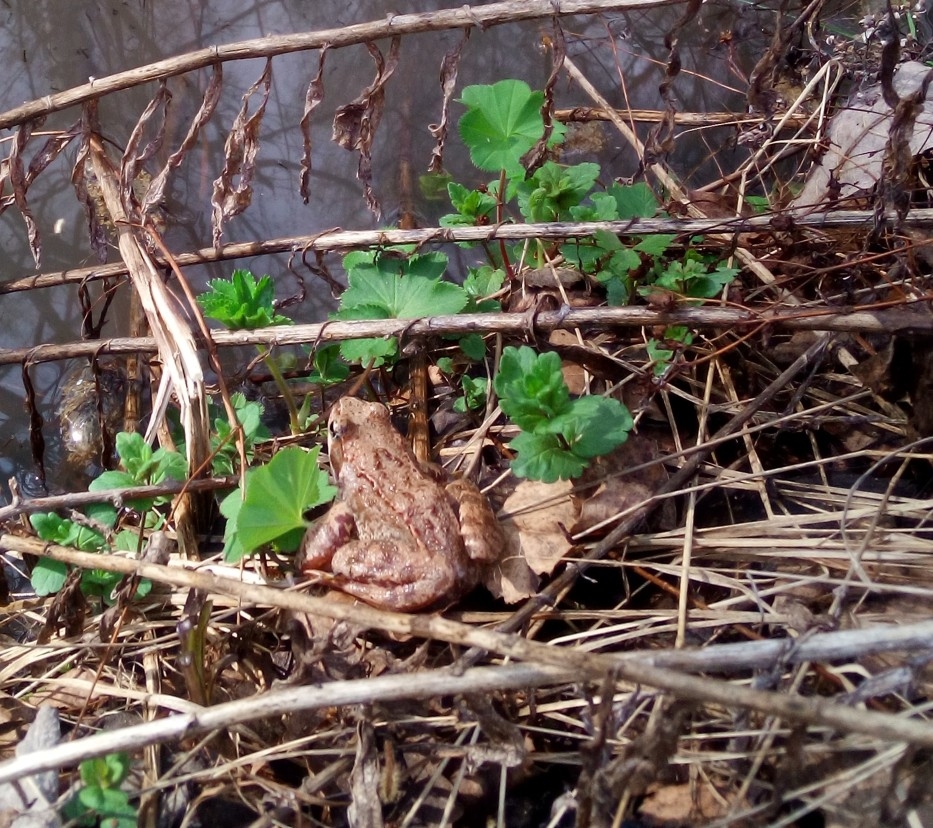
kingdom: Animalia
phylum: Chordata
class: Amphibia
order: Anura
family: Ranidae
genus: Rana
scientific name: Rana temporaria
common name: Common frog
